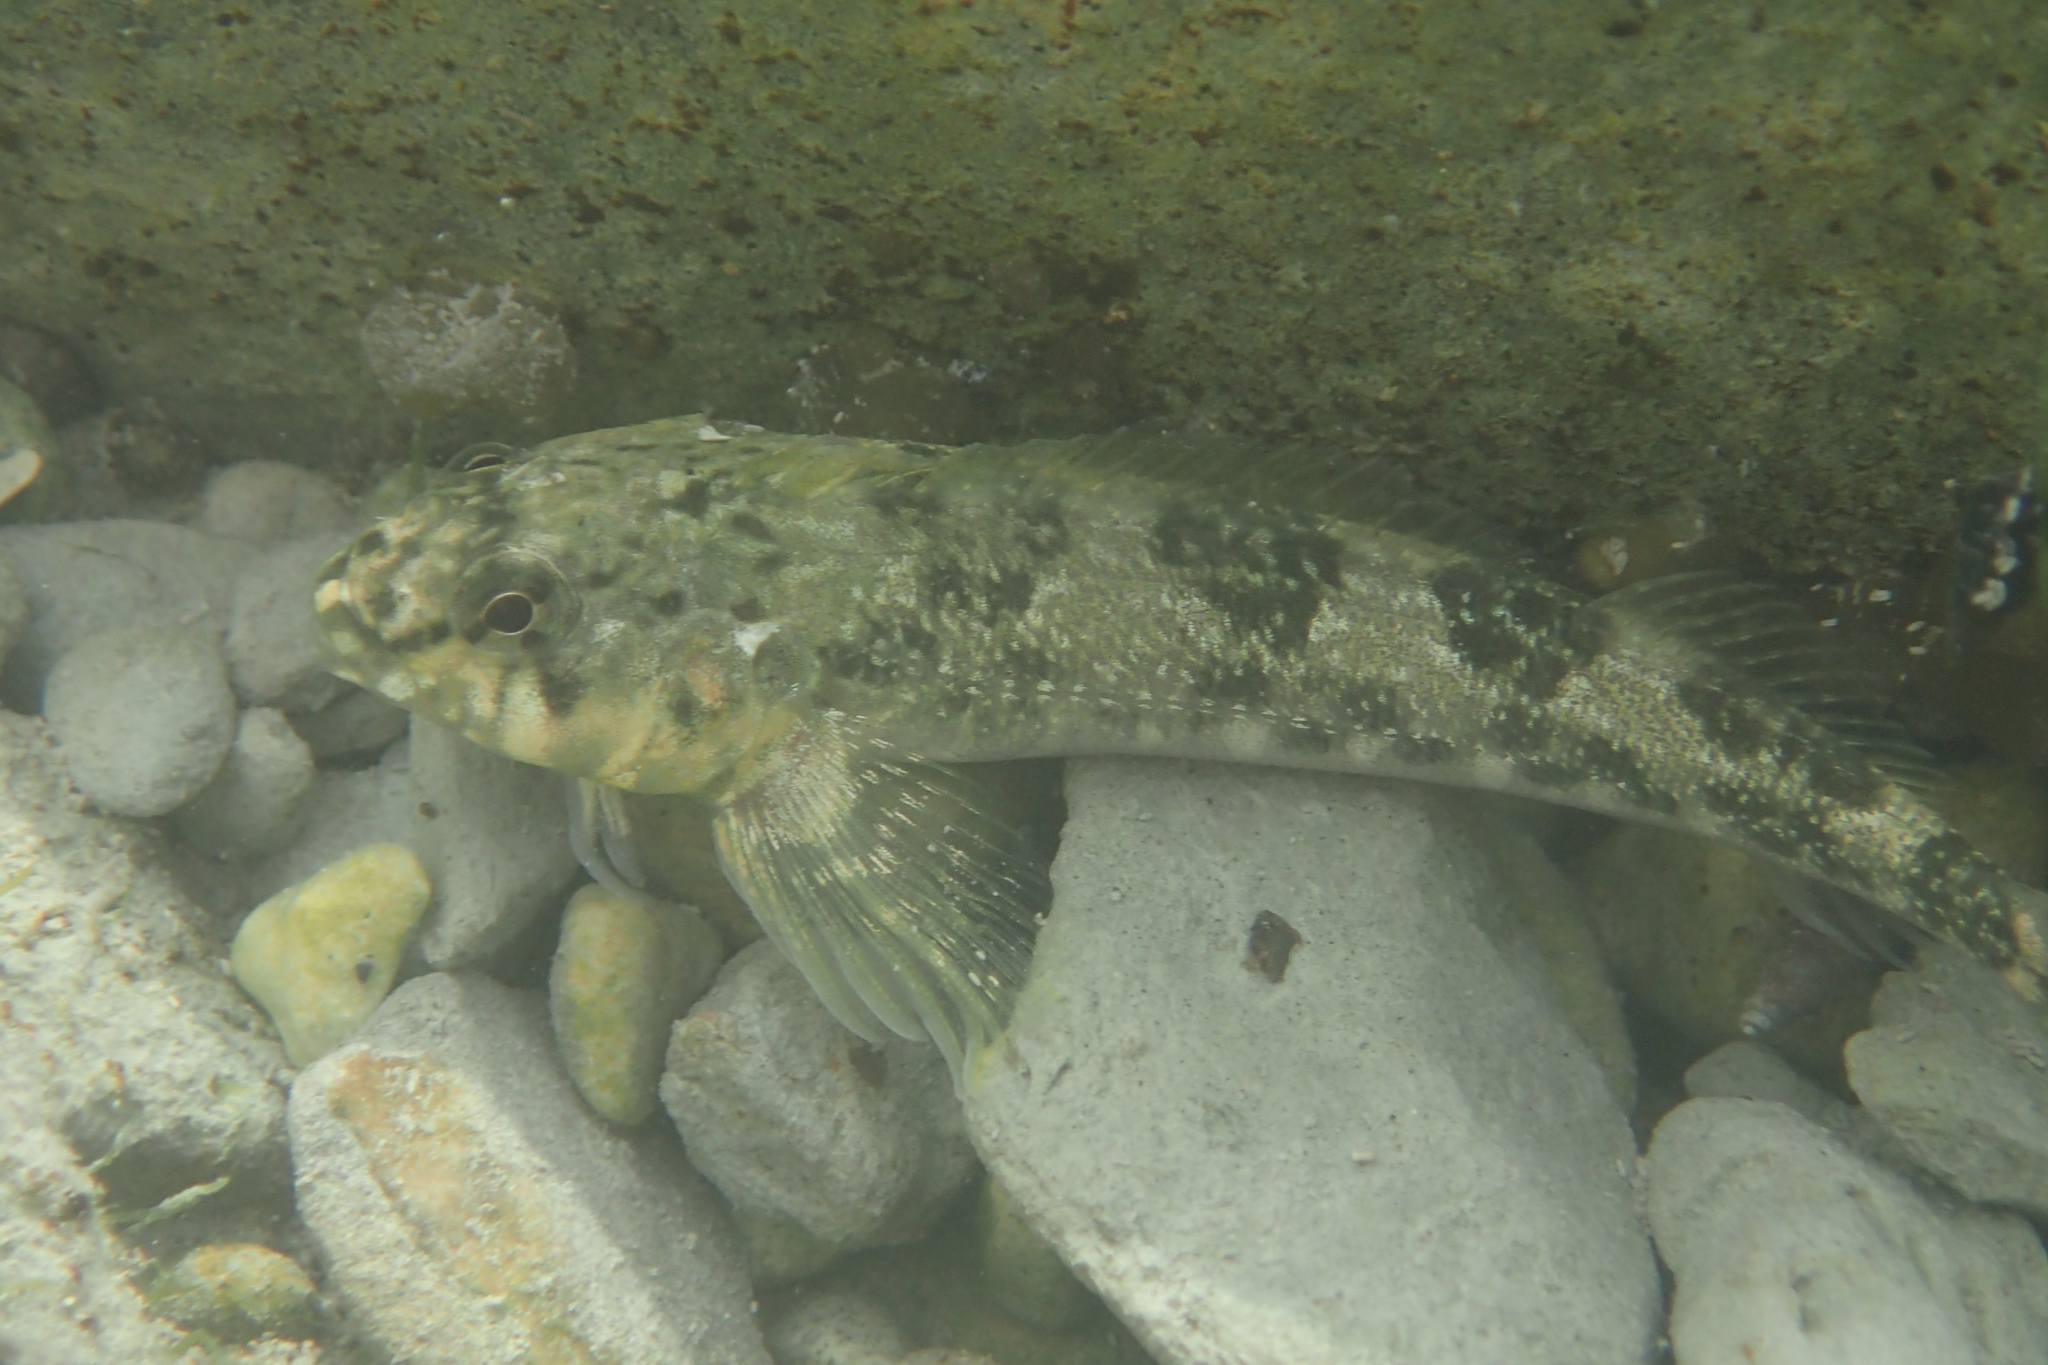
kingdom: Animalia
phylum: Chordata
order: Perciformes
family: Tripterygiidae
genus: Bellapiscis
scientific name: Bellapiscis medius
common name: Twister
